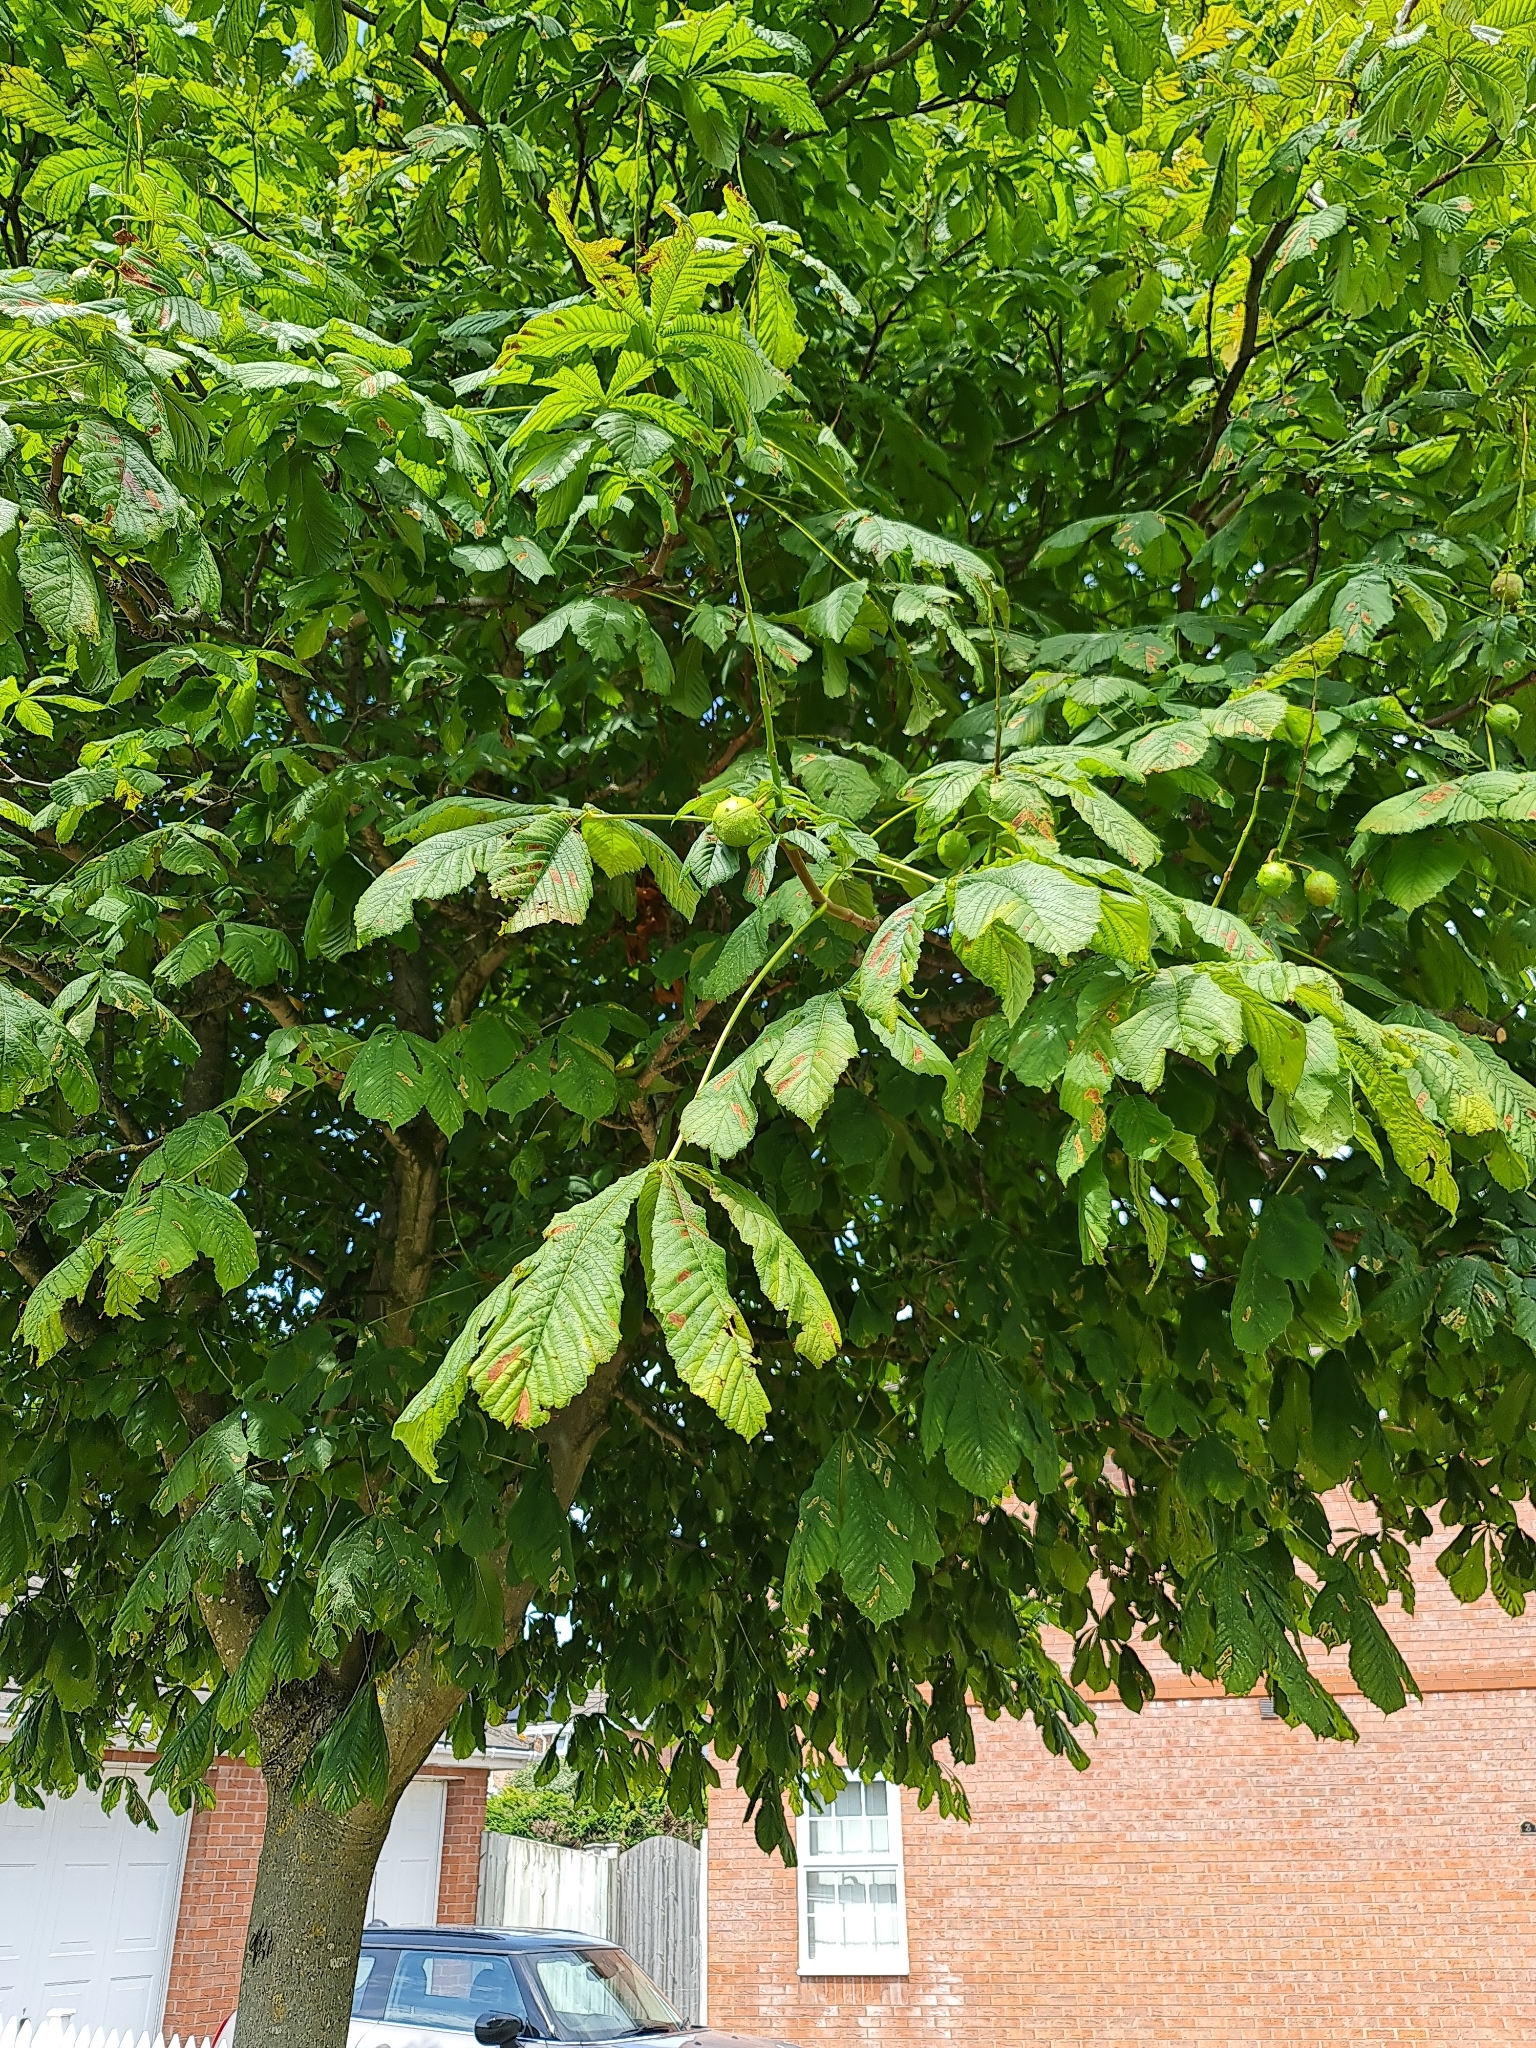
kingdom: Plantae
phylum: Tracheophyta
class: Magnoliopsida
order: Sapindales
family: Sapindaceae
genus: Aesculus
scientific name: Aesculus hippocastanum
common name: Horse-chestnut
